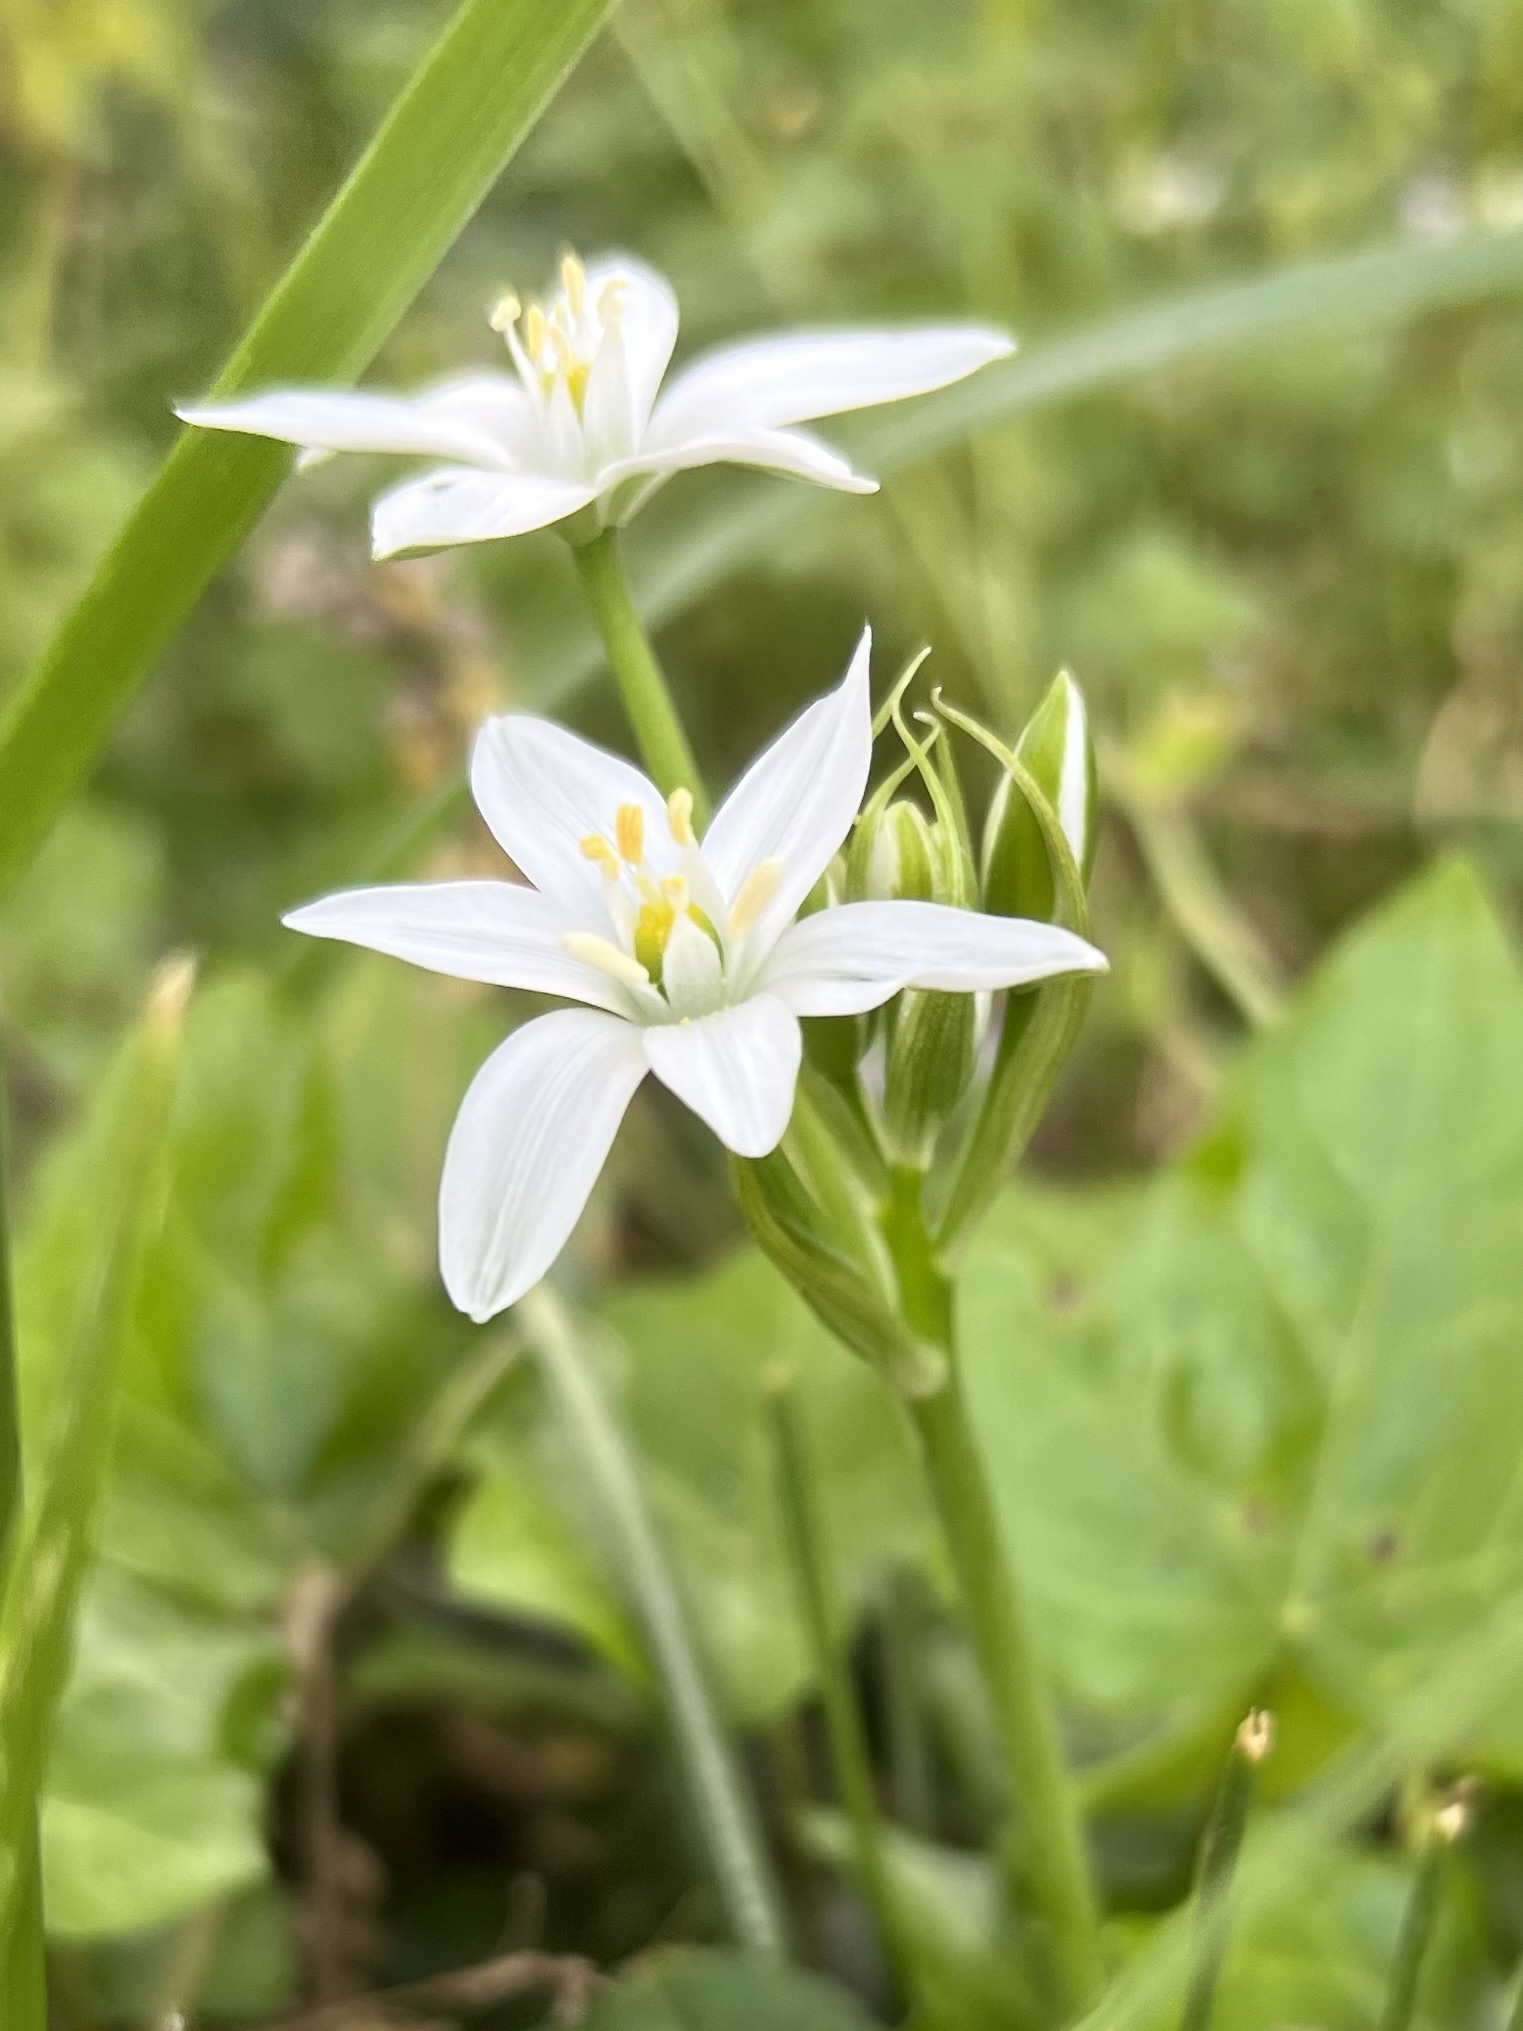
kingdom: Plantae
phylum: Tracheophyta
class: Liliopsida
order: Asparagales
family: Asparagaceae
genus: Ornithogalum
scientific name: Ornithogalum umbellatum
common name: Garden star-of-bethlehem
